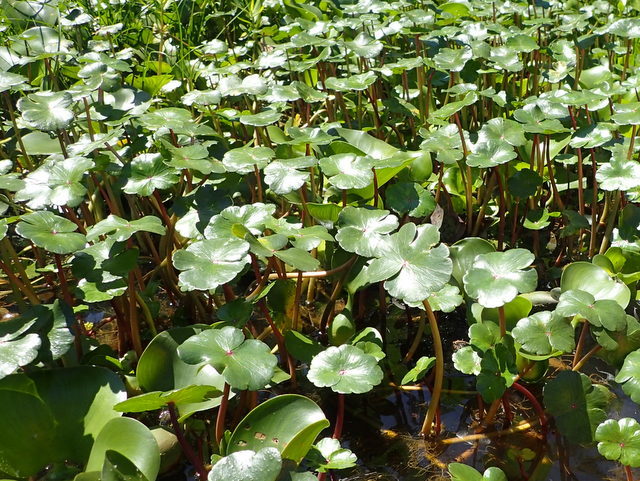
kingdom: Plantae
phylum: Tracheophyta
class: Magnoliopsida
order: Apiales
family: Araliaceae
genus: Hydrocotyle
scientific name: Hydrocotyle ranunculoides
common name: Floating pennywort
